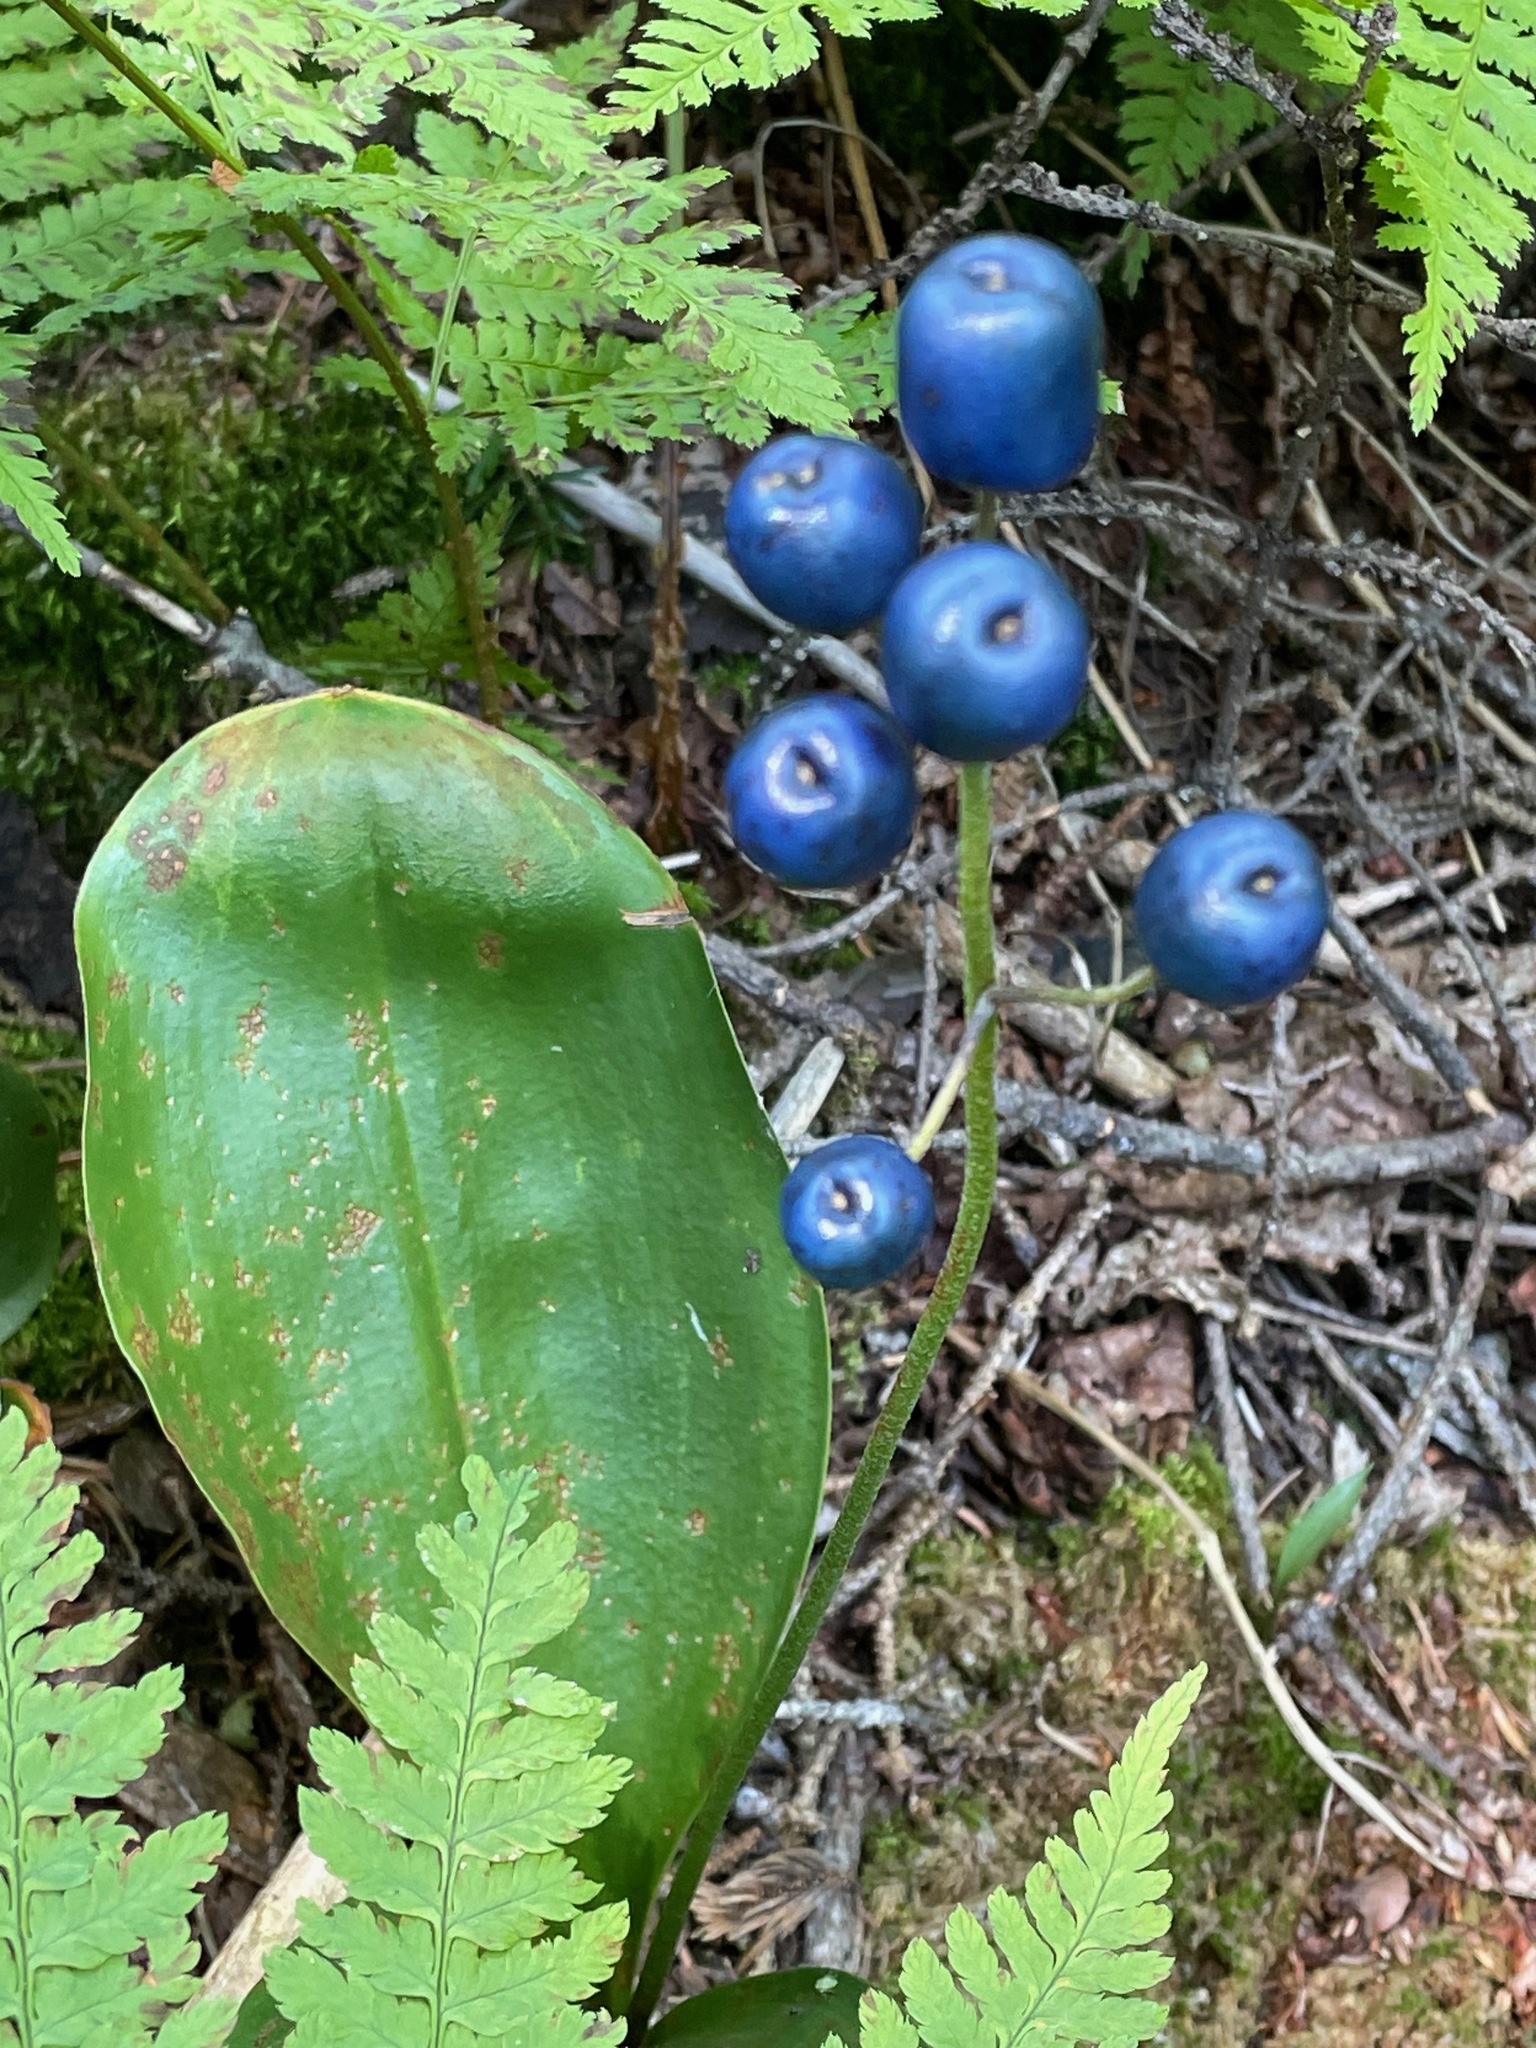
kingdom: Plantae
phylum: Tracheophyta
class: Liliopsida
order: Liliales
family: Liliaceae
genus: Clintonia
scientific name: Clintonia borealis
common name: Yellow clintonia
